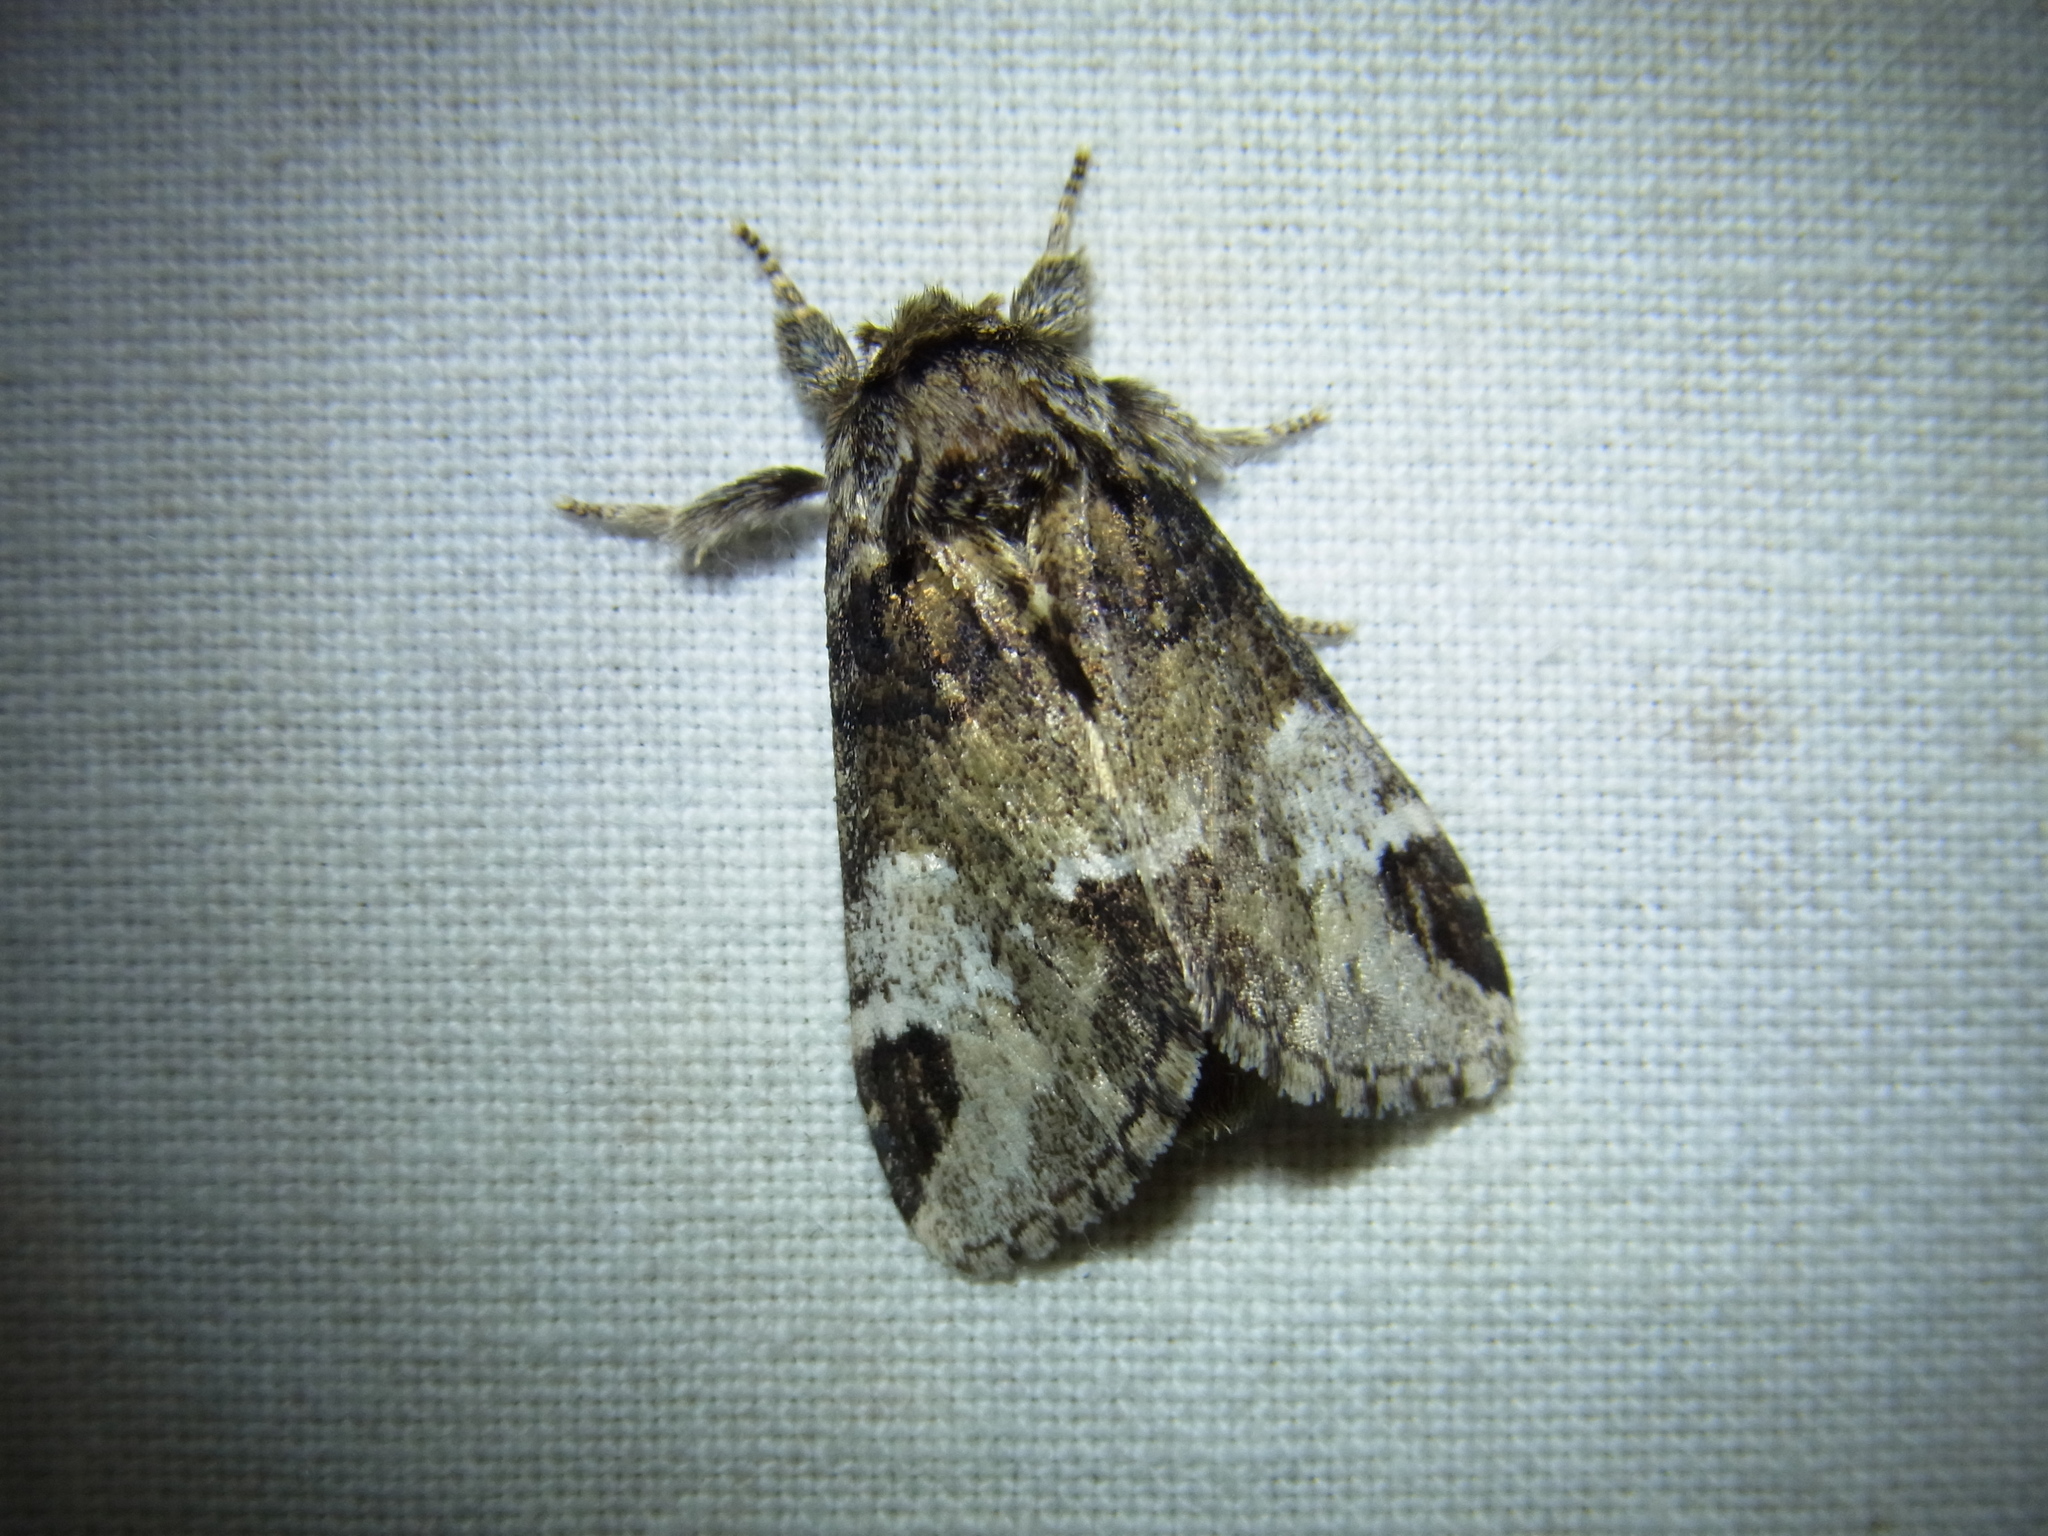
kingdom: Animalia
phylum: Arthropoda
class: Insecta
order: Lepidoptera
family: Notodontidae
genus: Drymonia
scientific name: Drymonia japonica
